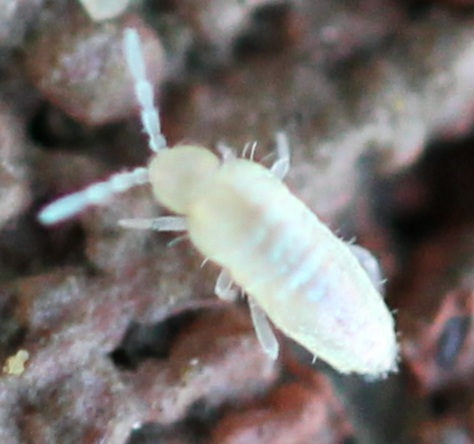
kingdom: Animalia
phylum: Arthropoda
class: Collembola
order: Entomobryomorpha
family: Paronellidae
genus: Cyphoderus
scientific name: Cyphoderus similis
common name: Springtail
